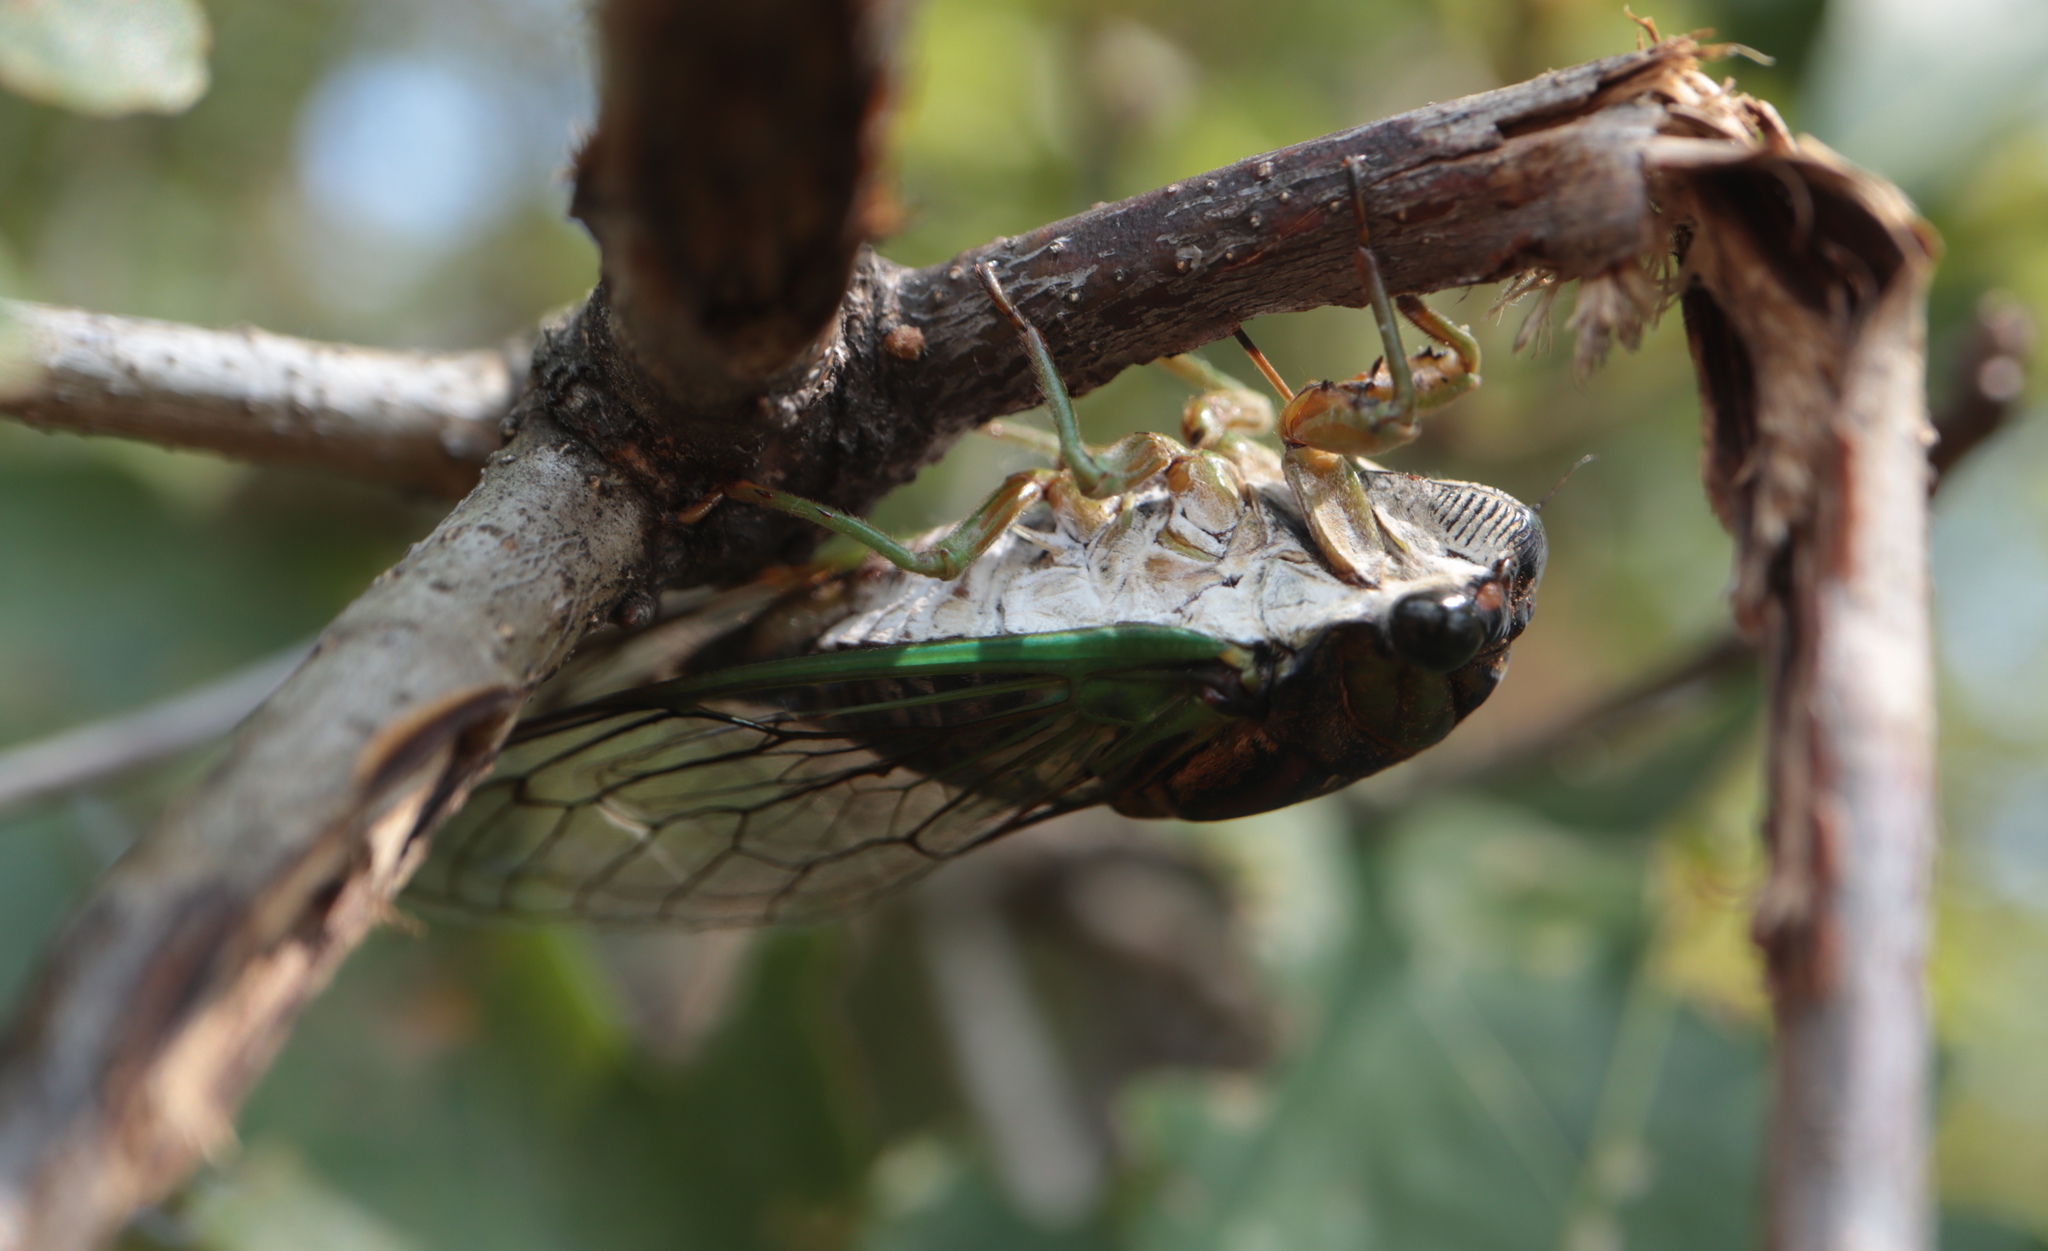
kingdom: Animalia
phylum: Arthropoda
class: Insecta
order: Hemiptera
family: Cicadidae
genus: Neotibicen
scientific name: Neotibicen tibicen
